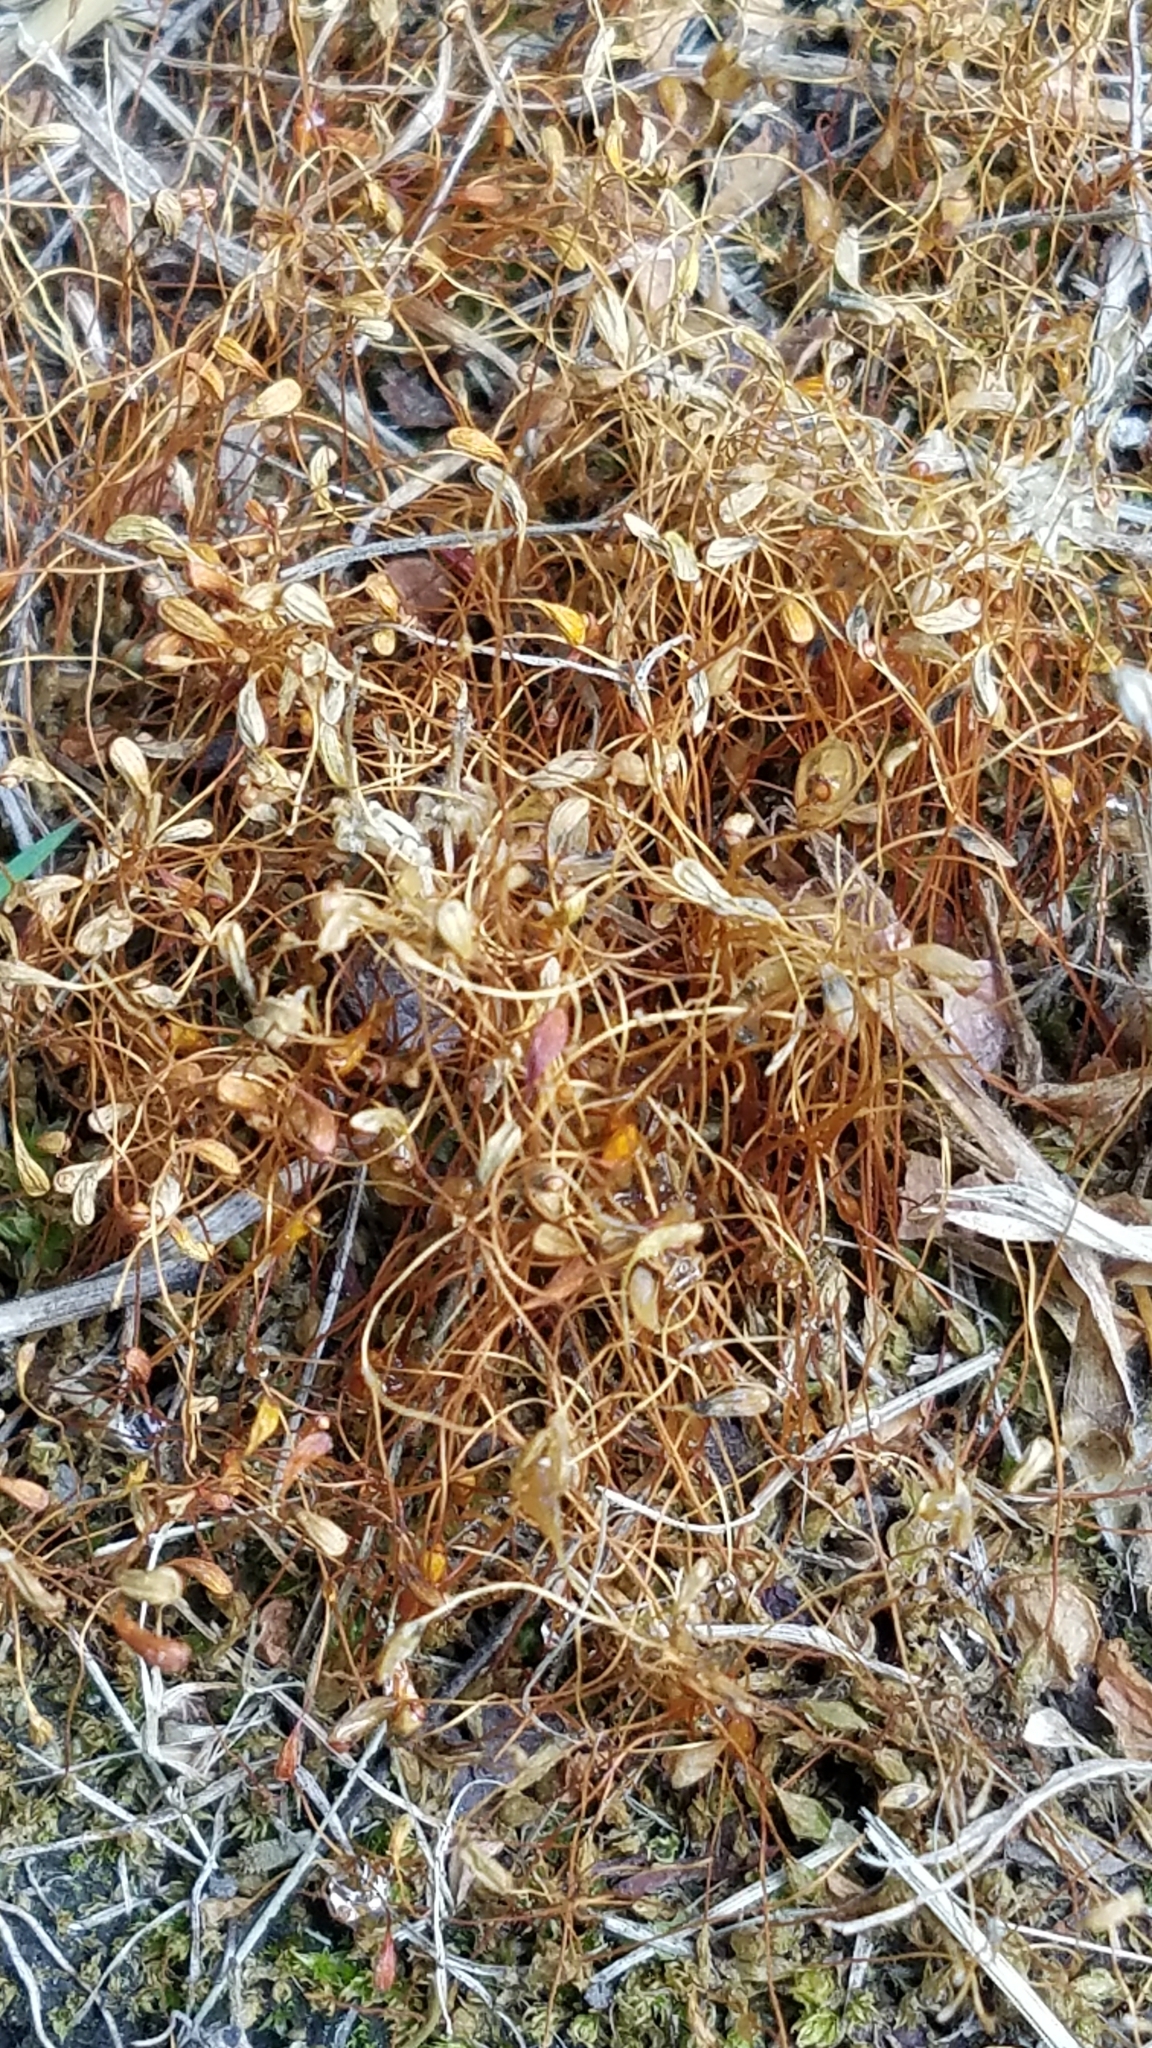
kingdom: Plantae
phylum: Bryophyta
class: Bryopsida
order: Funariales
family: Funariaceae
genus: Funaria
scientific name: Funaria hygrometrica
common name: Common cord moss
